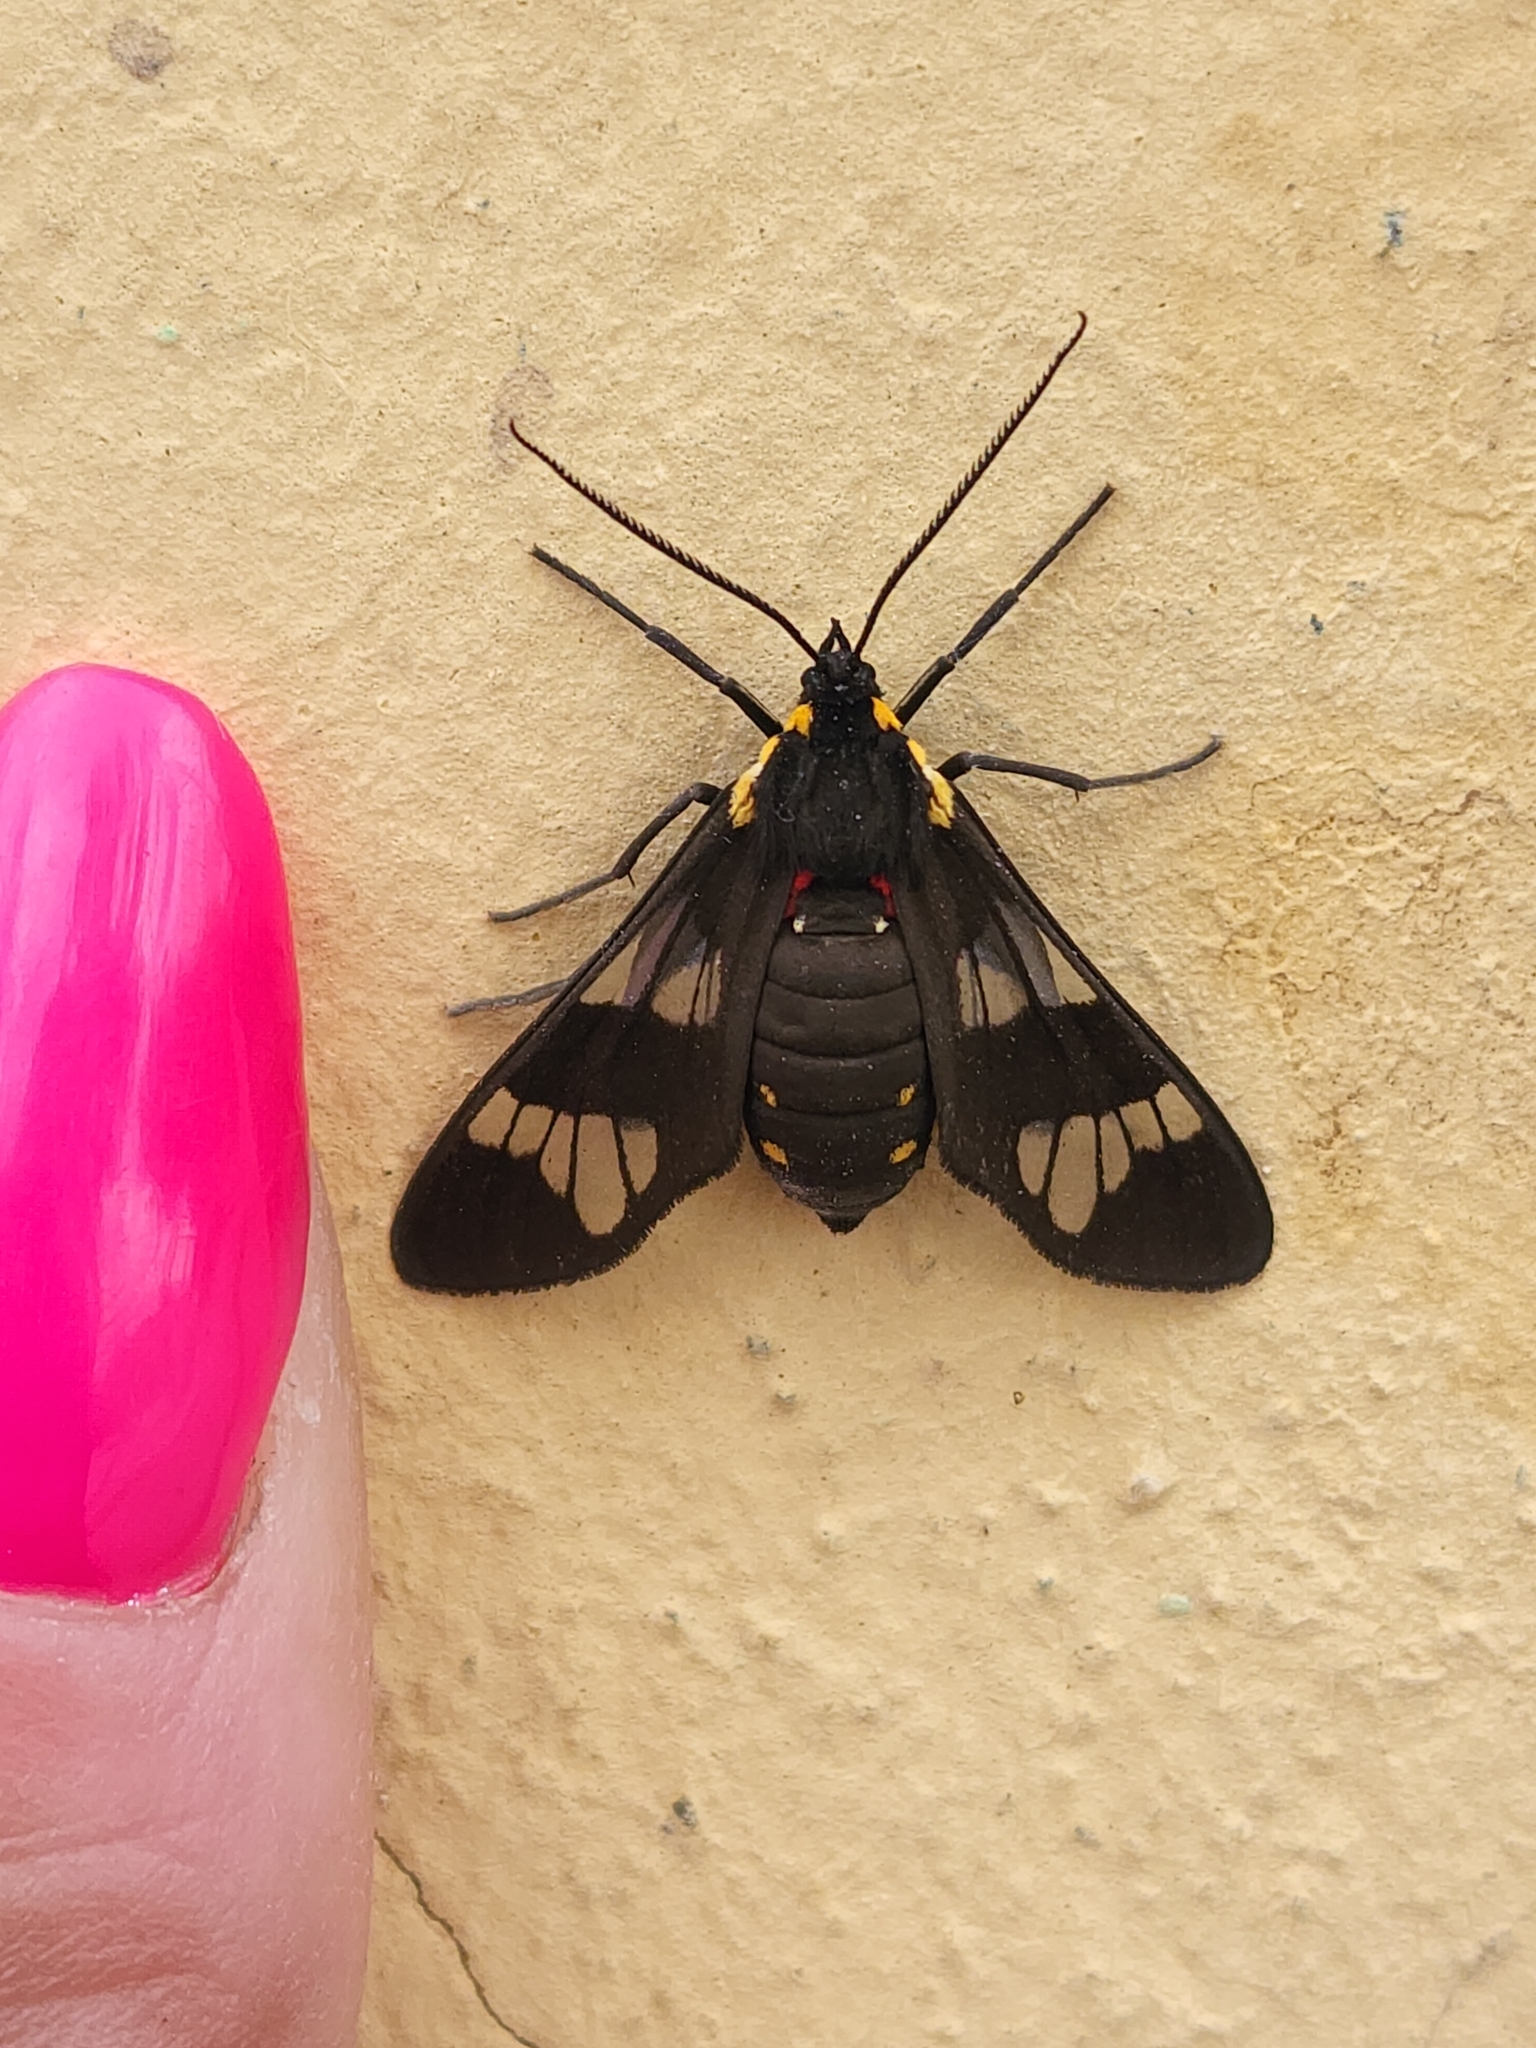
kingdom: Animalia
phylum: Arthropoda
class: Insecta
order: Lepidoptera
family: Erebidae
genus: Eurata
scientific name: Eurata hermione
